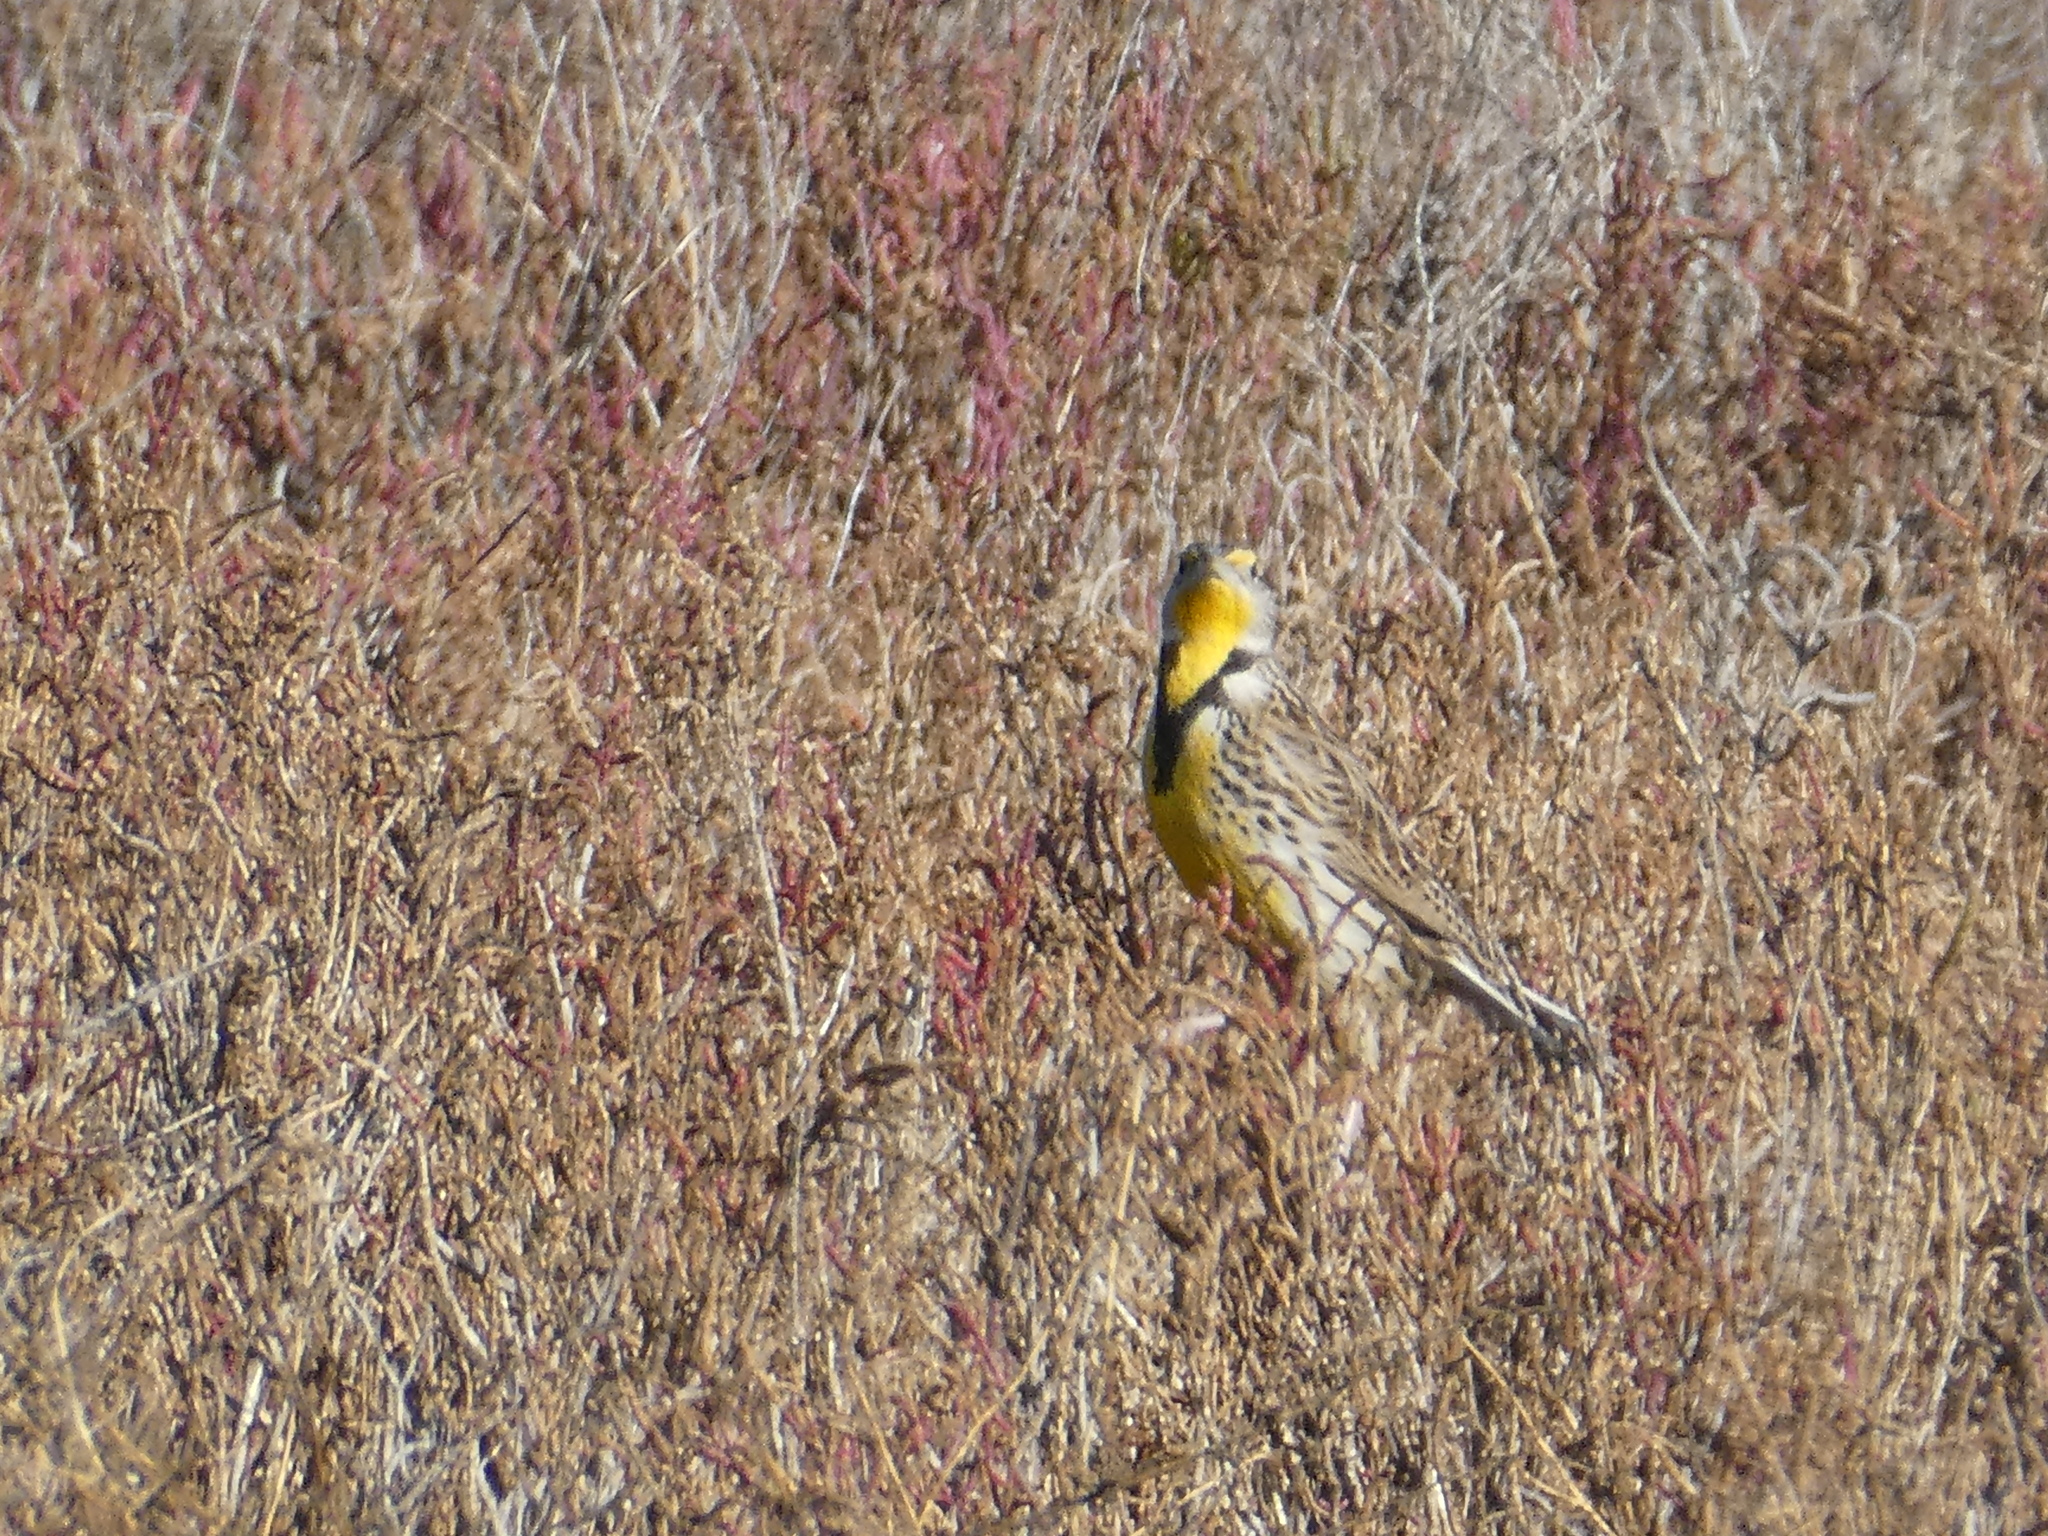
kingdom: Animalia
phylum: Chordata
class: Aves
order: Passeriformes
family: Icteridae
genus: Sturnella
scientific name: Sturnella neglecta
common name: Western meadowlark
